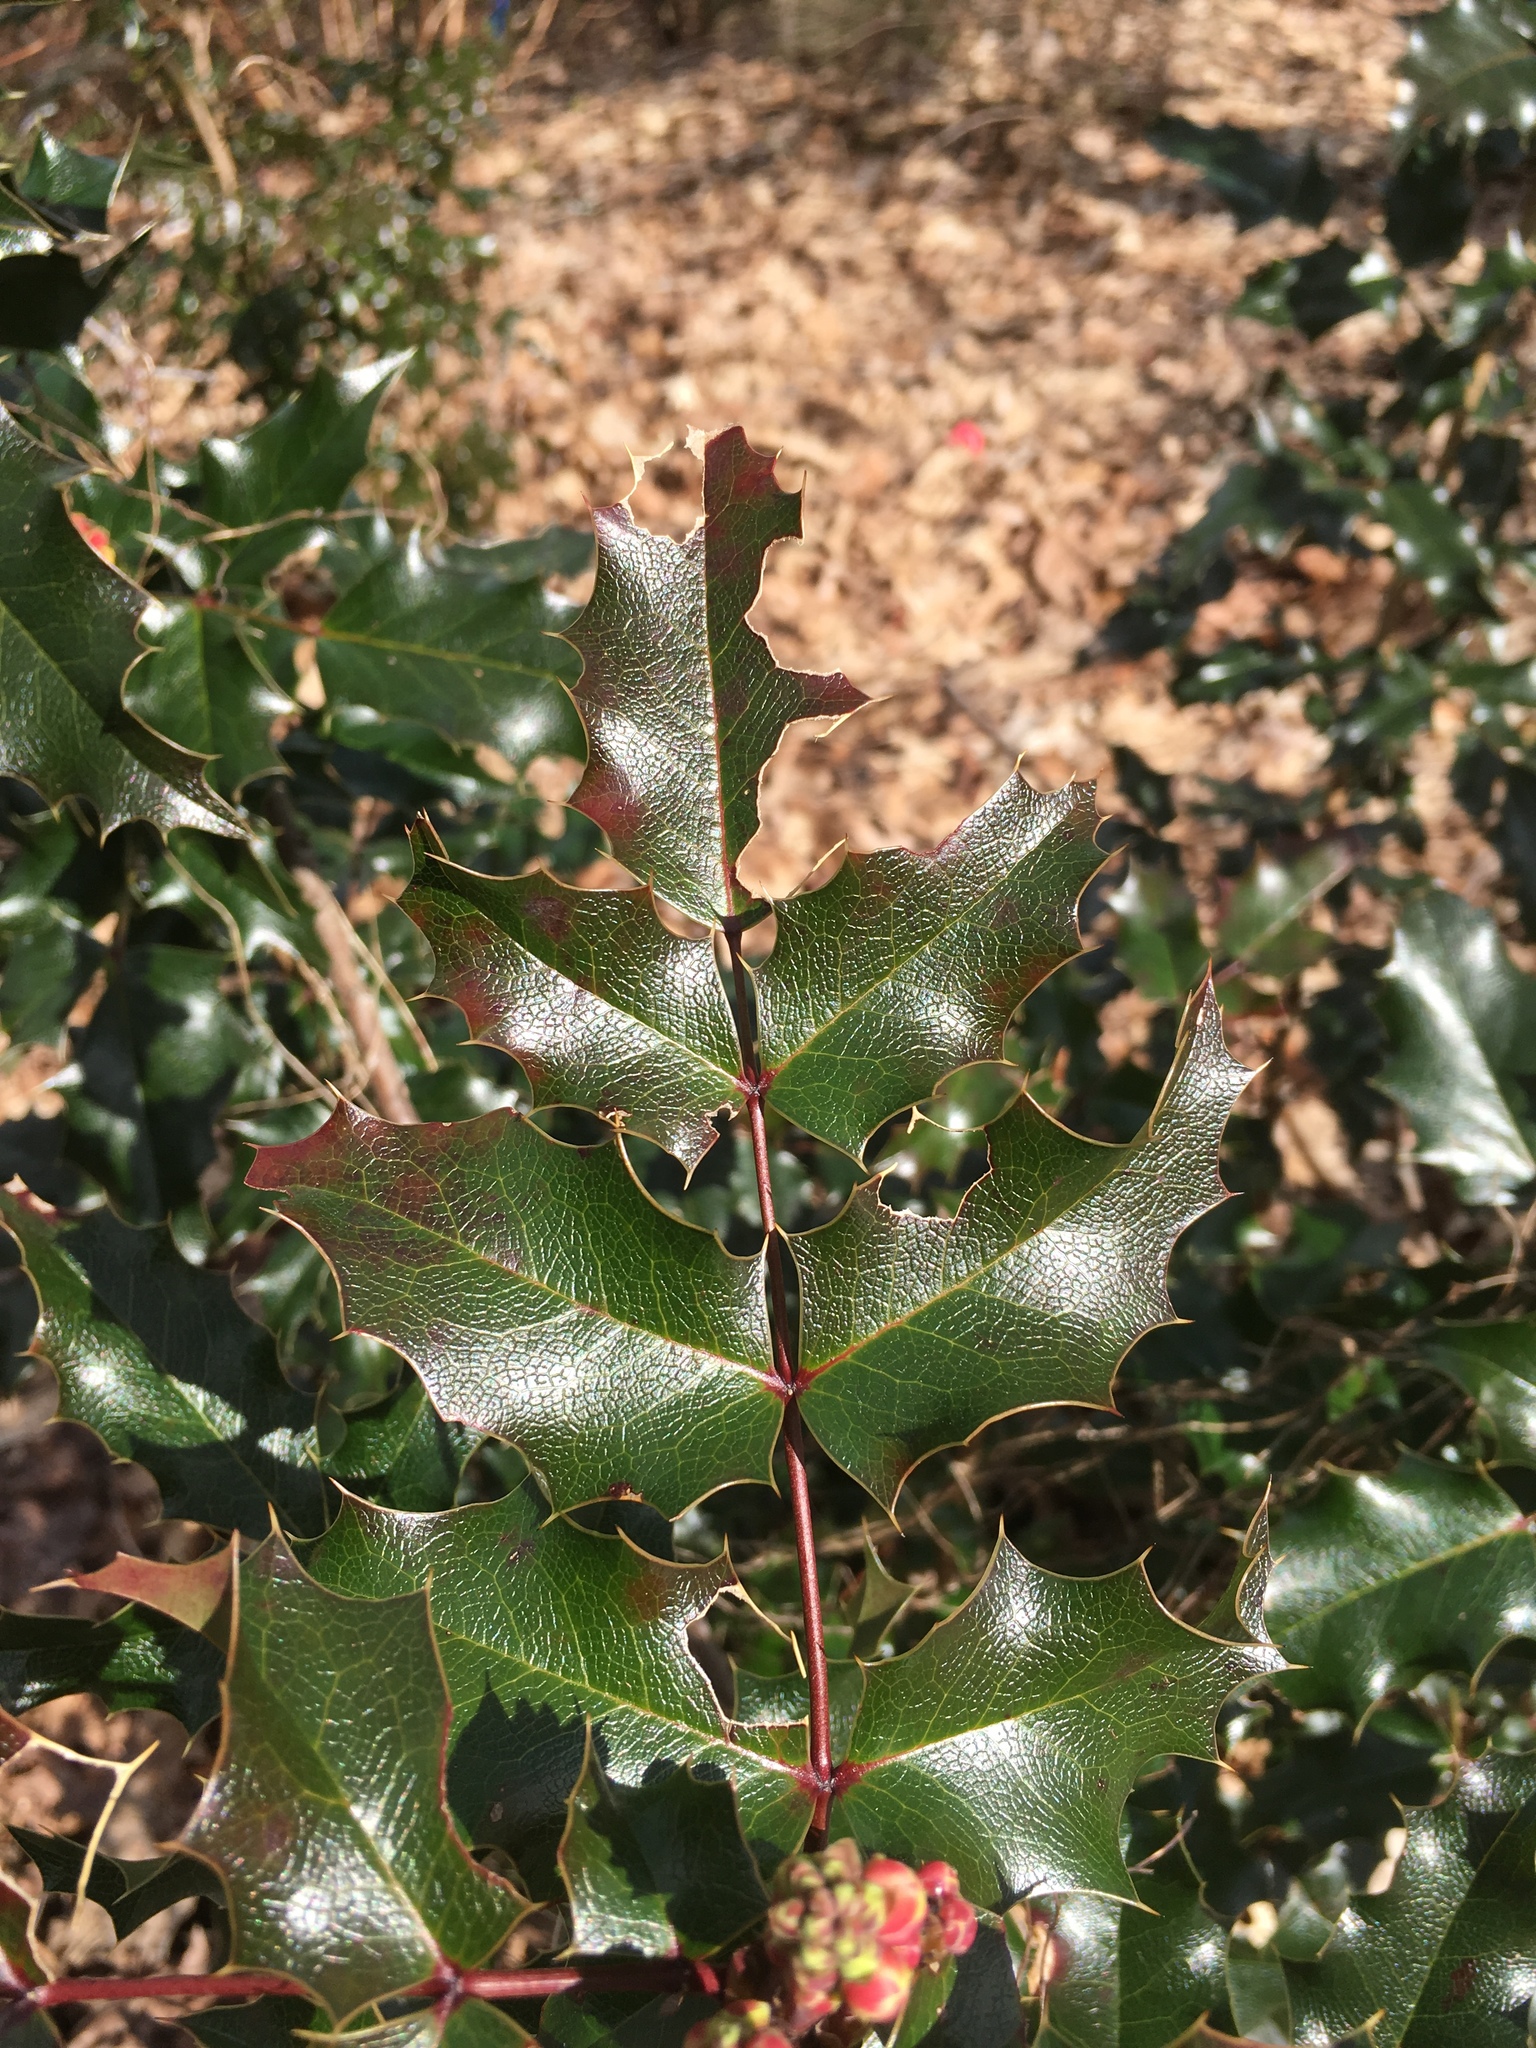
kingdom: Plantae
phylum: Tracheophyta
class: Magnoliopsida
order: Ranunculales
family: Berberidaceae
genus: Mahonia
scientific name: Mahonia aquifolium
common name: Oregon-grape
